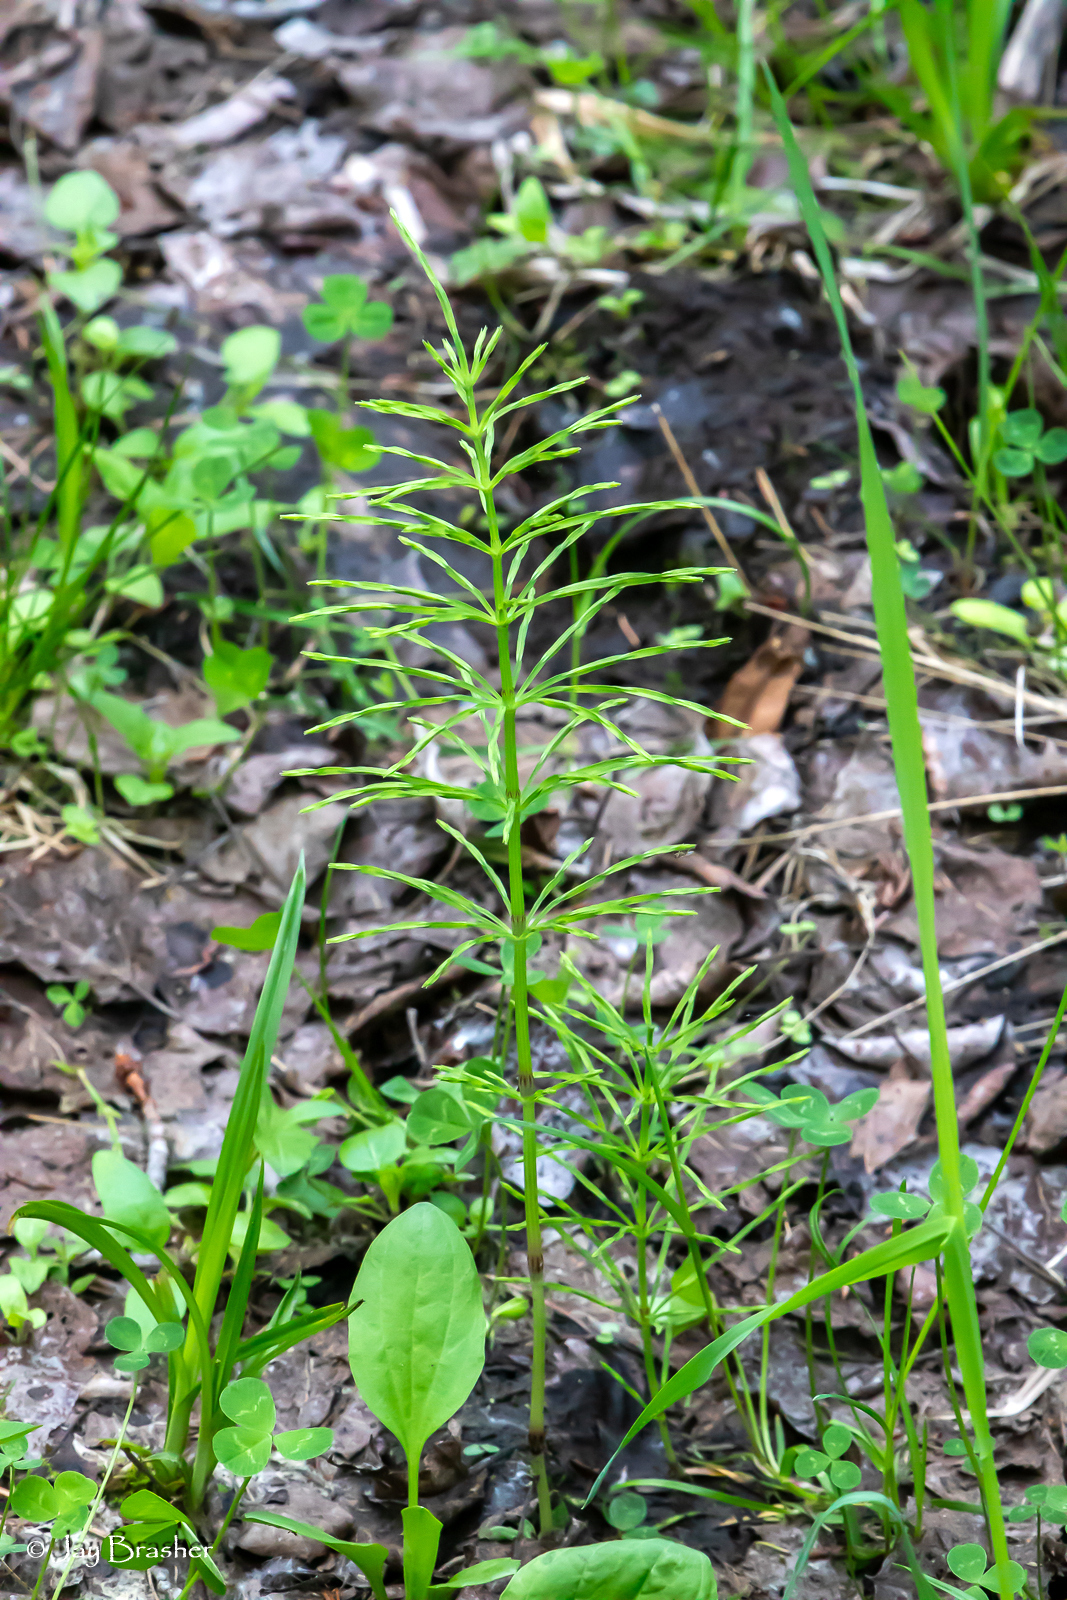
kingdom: Plantae
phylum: Tracheophyta
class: Polypodiopsida
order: Equisetales
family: Equisetaceae
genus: Equisetum
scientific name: Equisetum arvense
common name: Field horsetail
